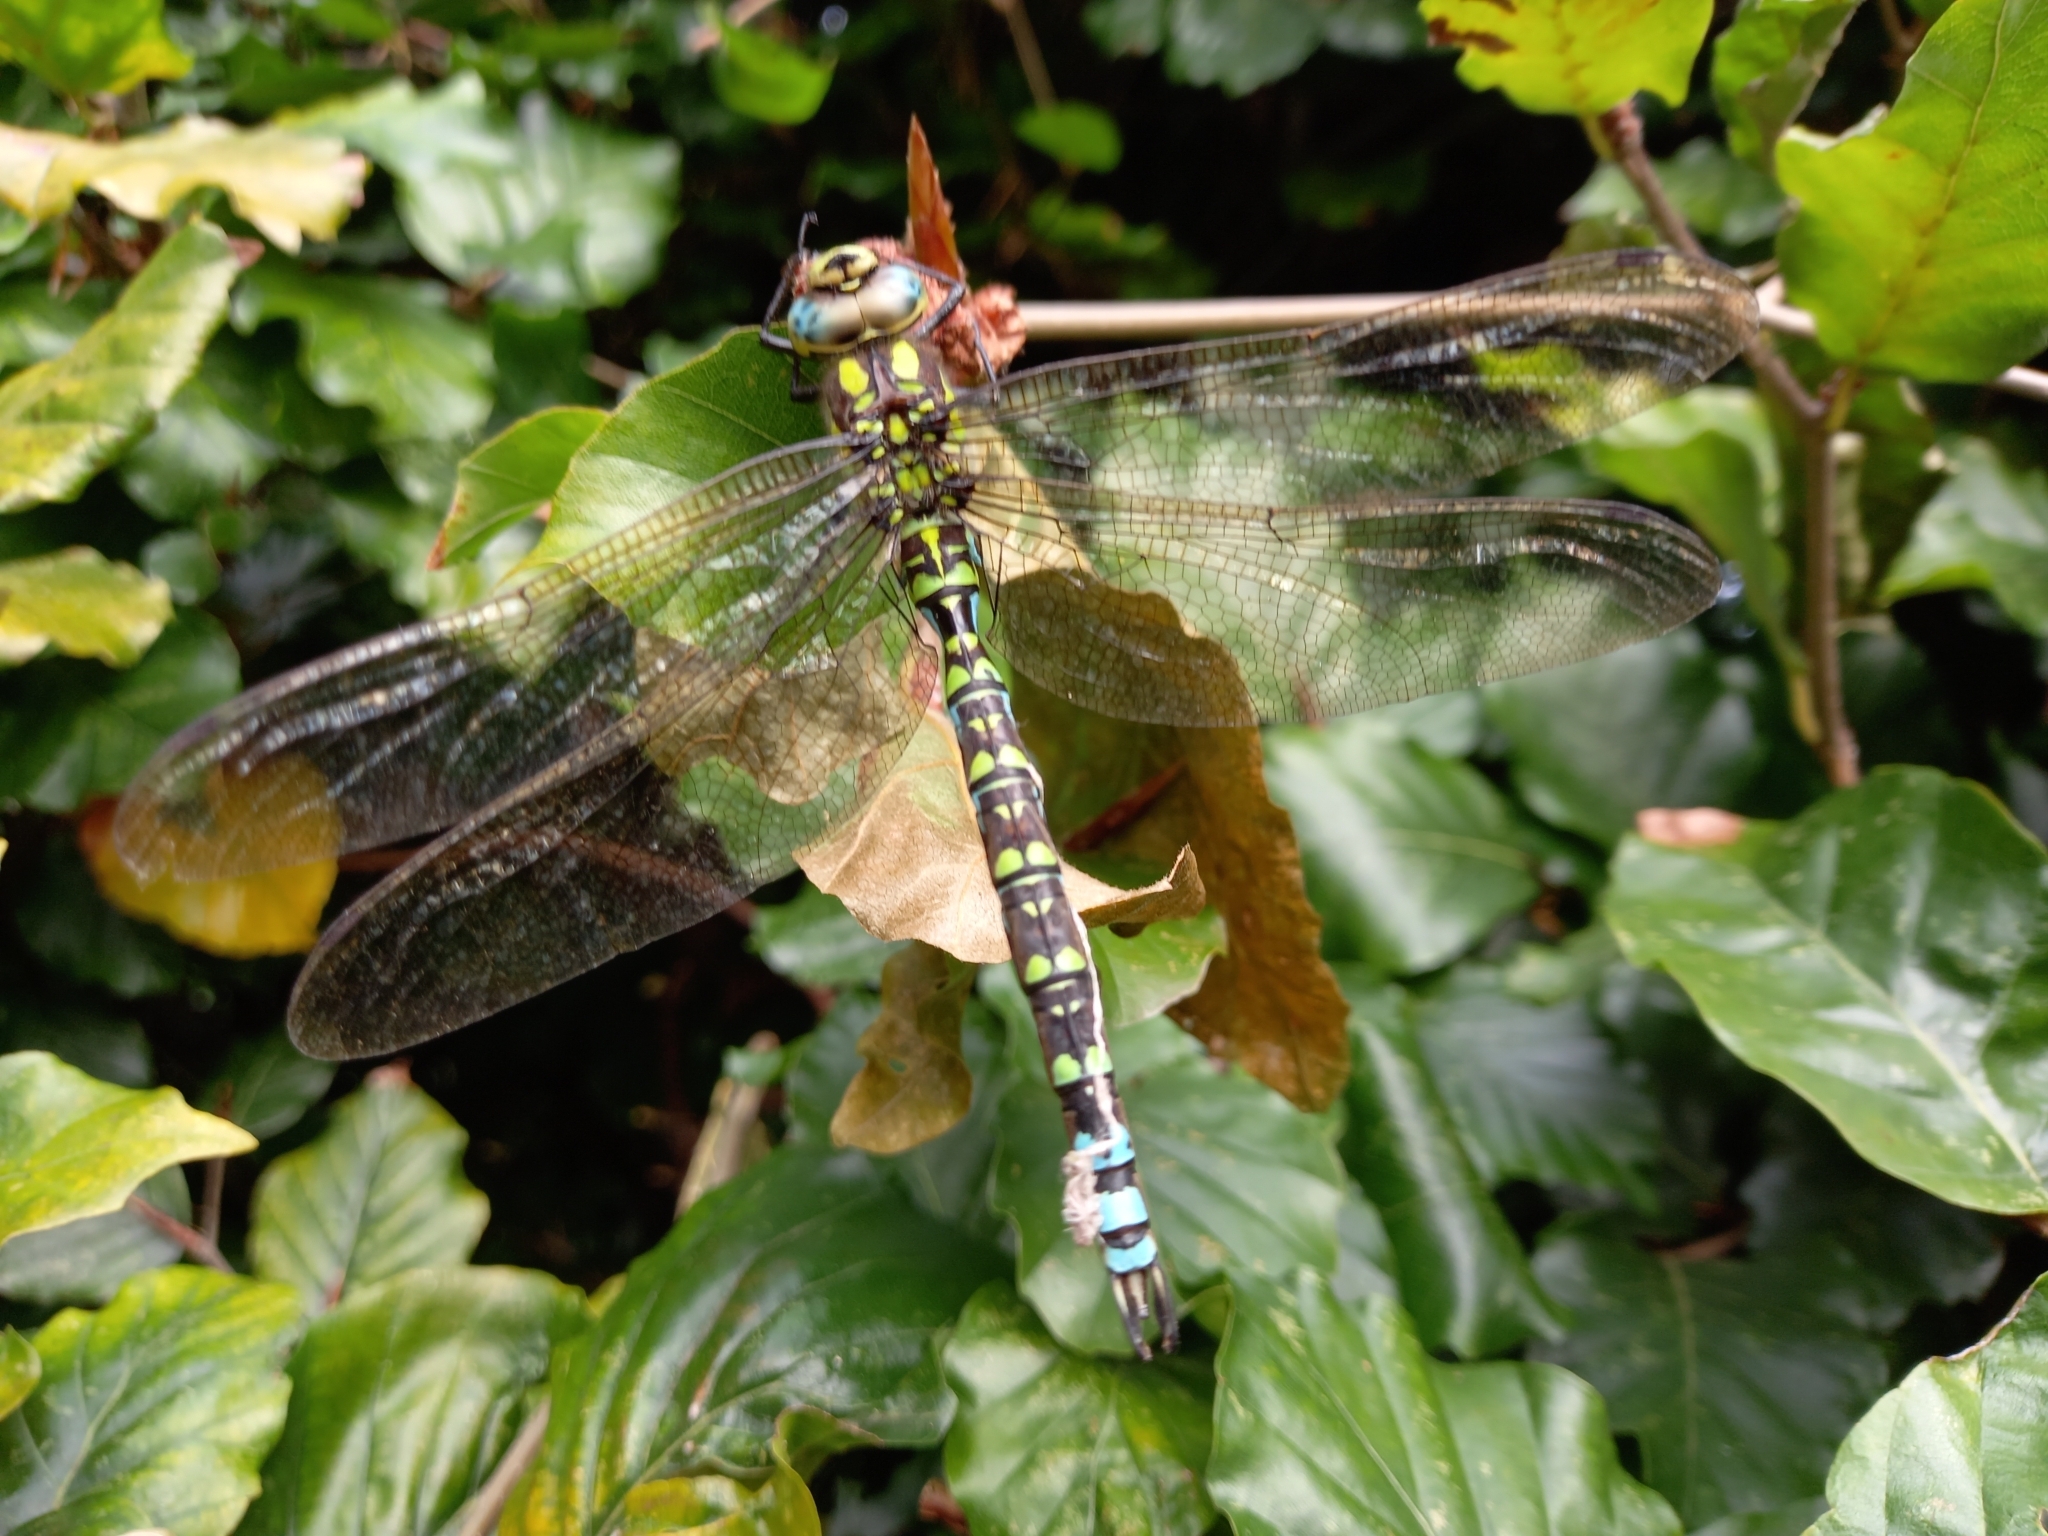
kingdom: Animalia
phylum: Arthropoda
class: Insecta
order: Odonata
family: Aeshnidae
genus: Aeshna
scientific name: Aeshna cyanea
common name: Southern hawker
